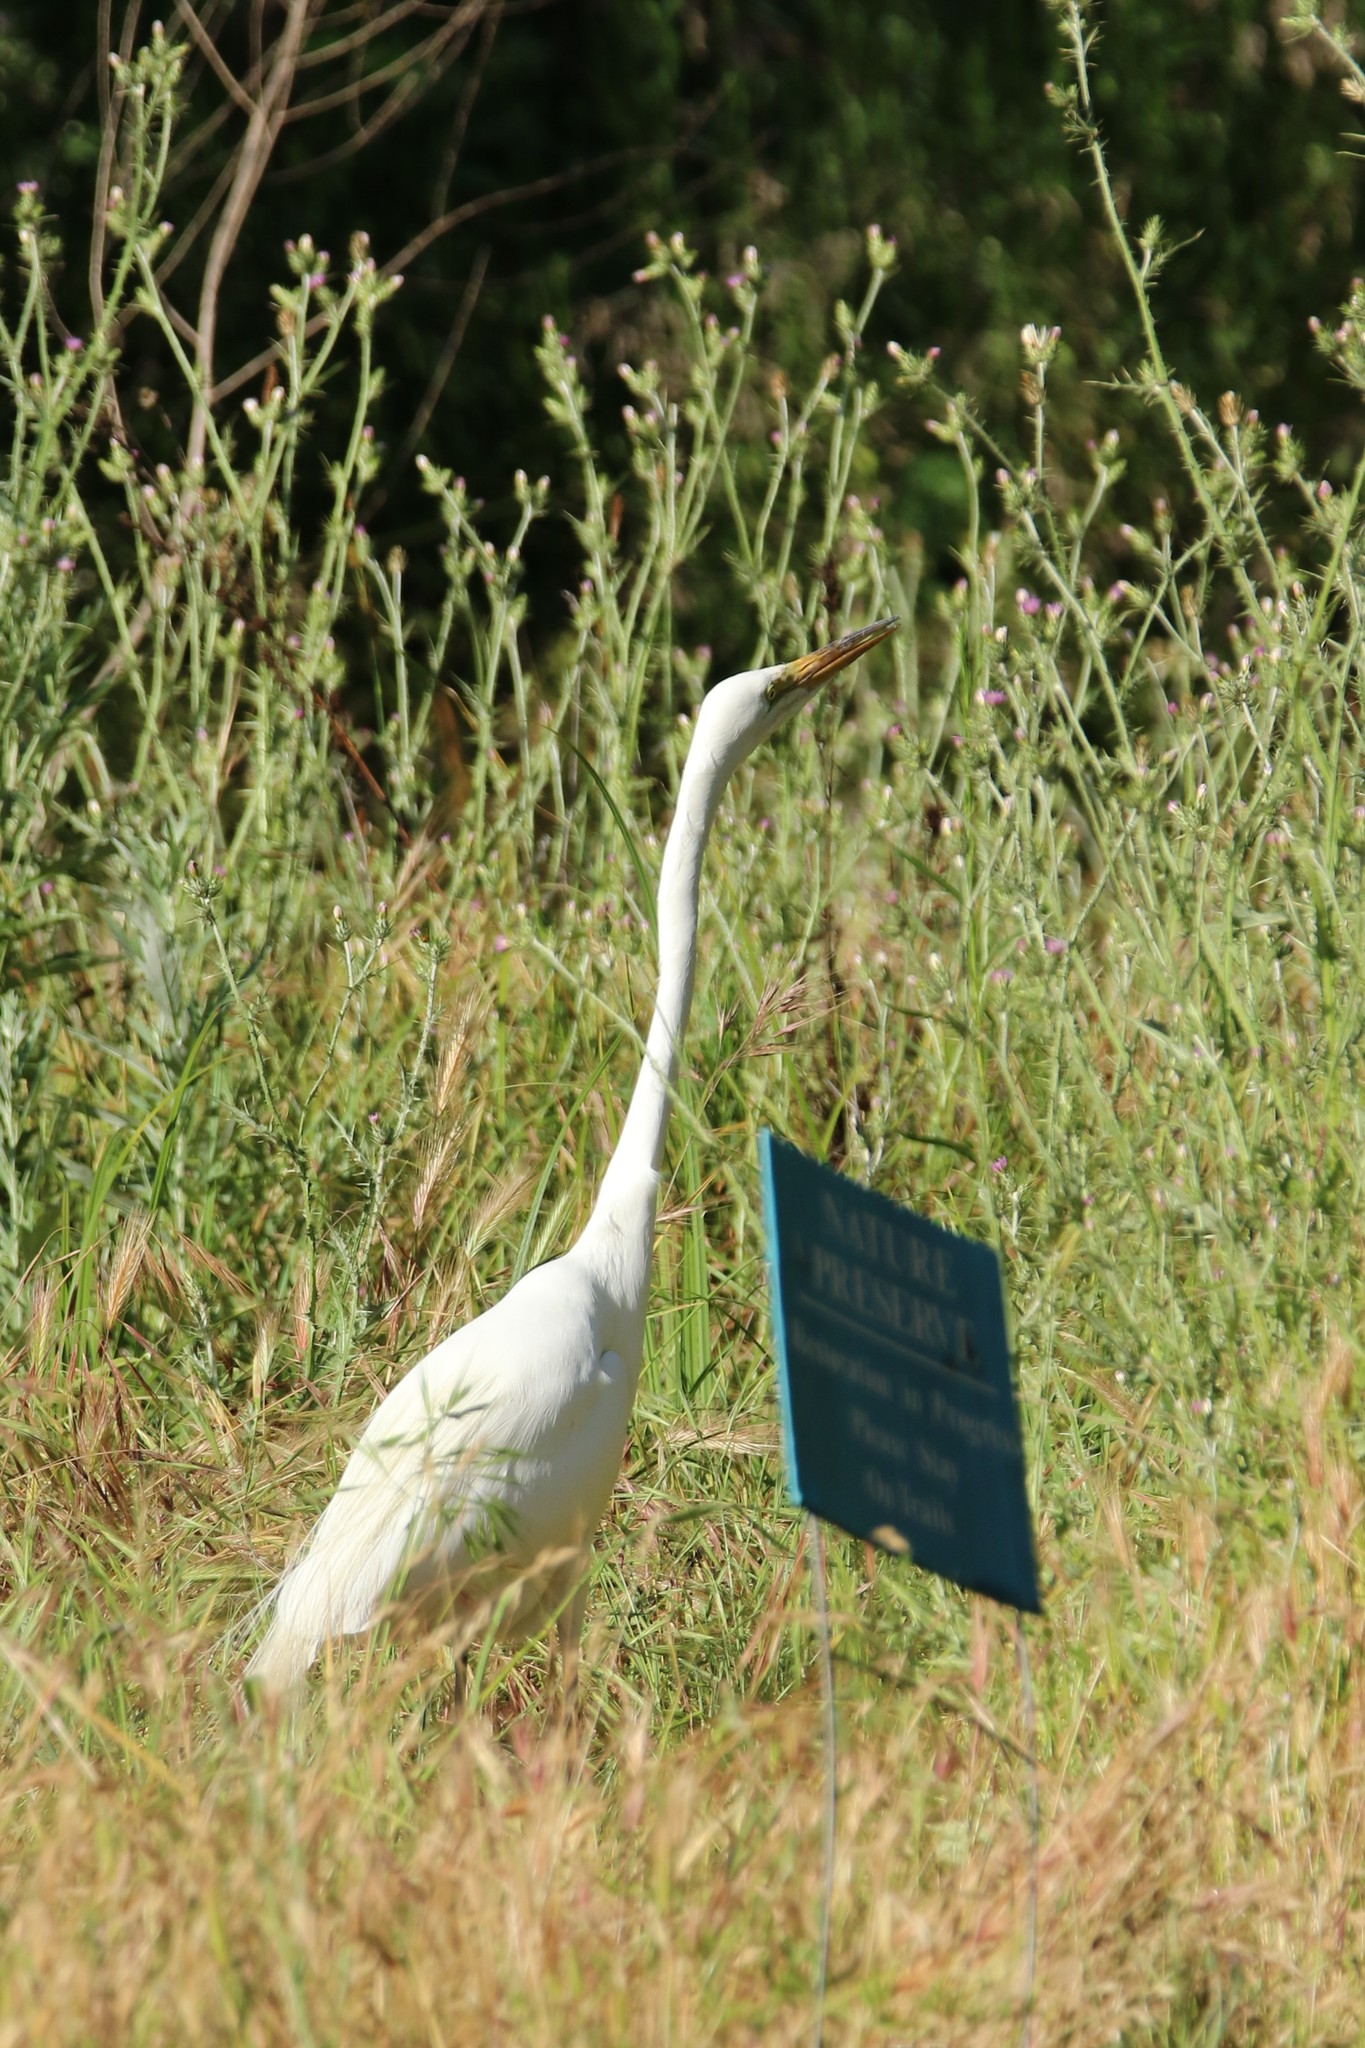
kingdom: Animalia
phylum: Chordata
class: Aves
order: Pelecaniformes
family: Ardeidae
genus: Ardea
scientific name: Ardea alba
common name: Great egret
